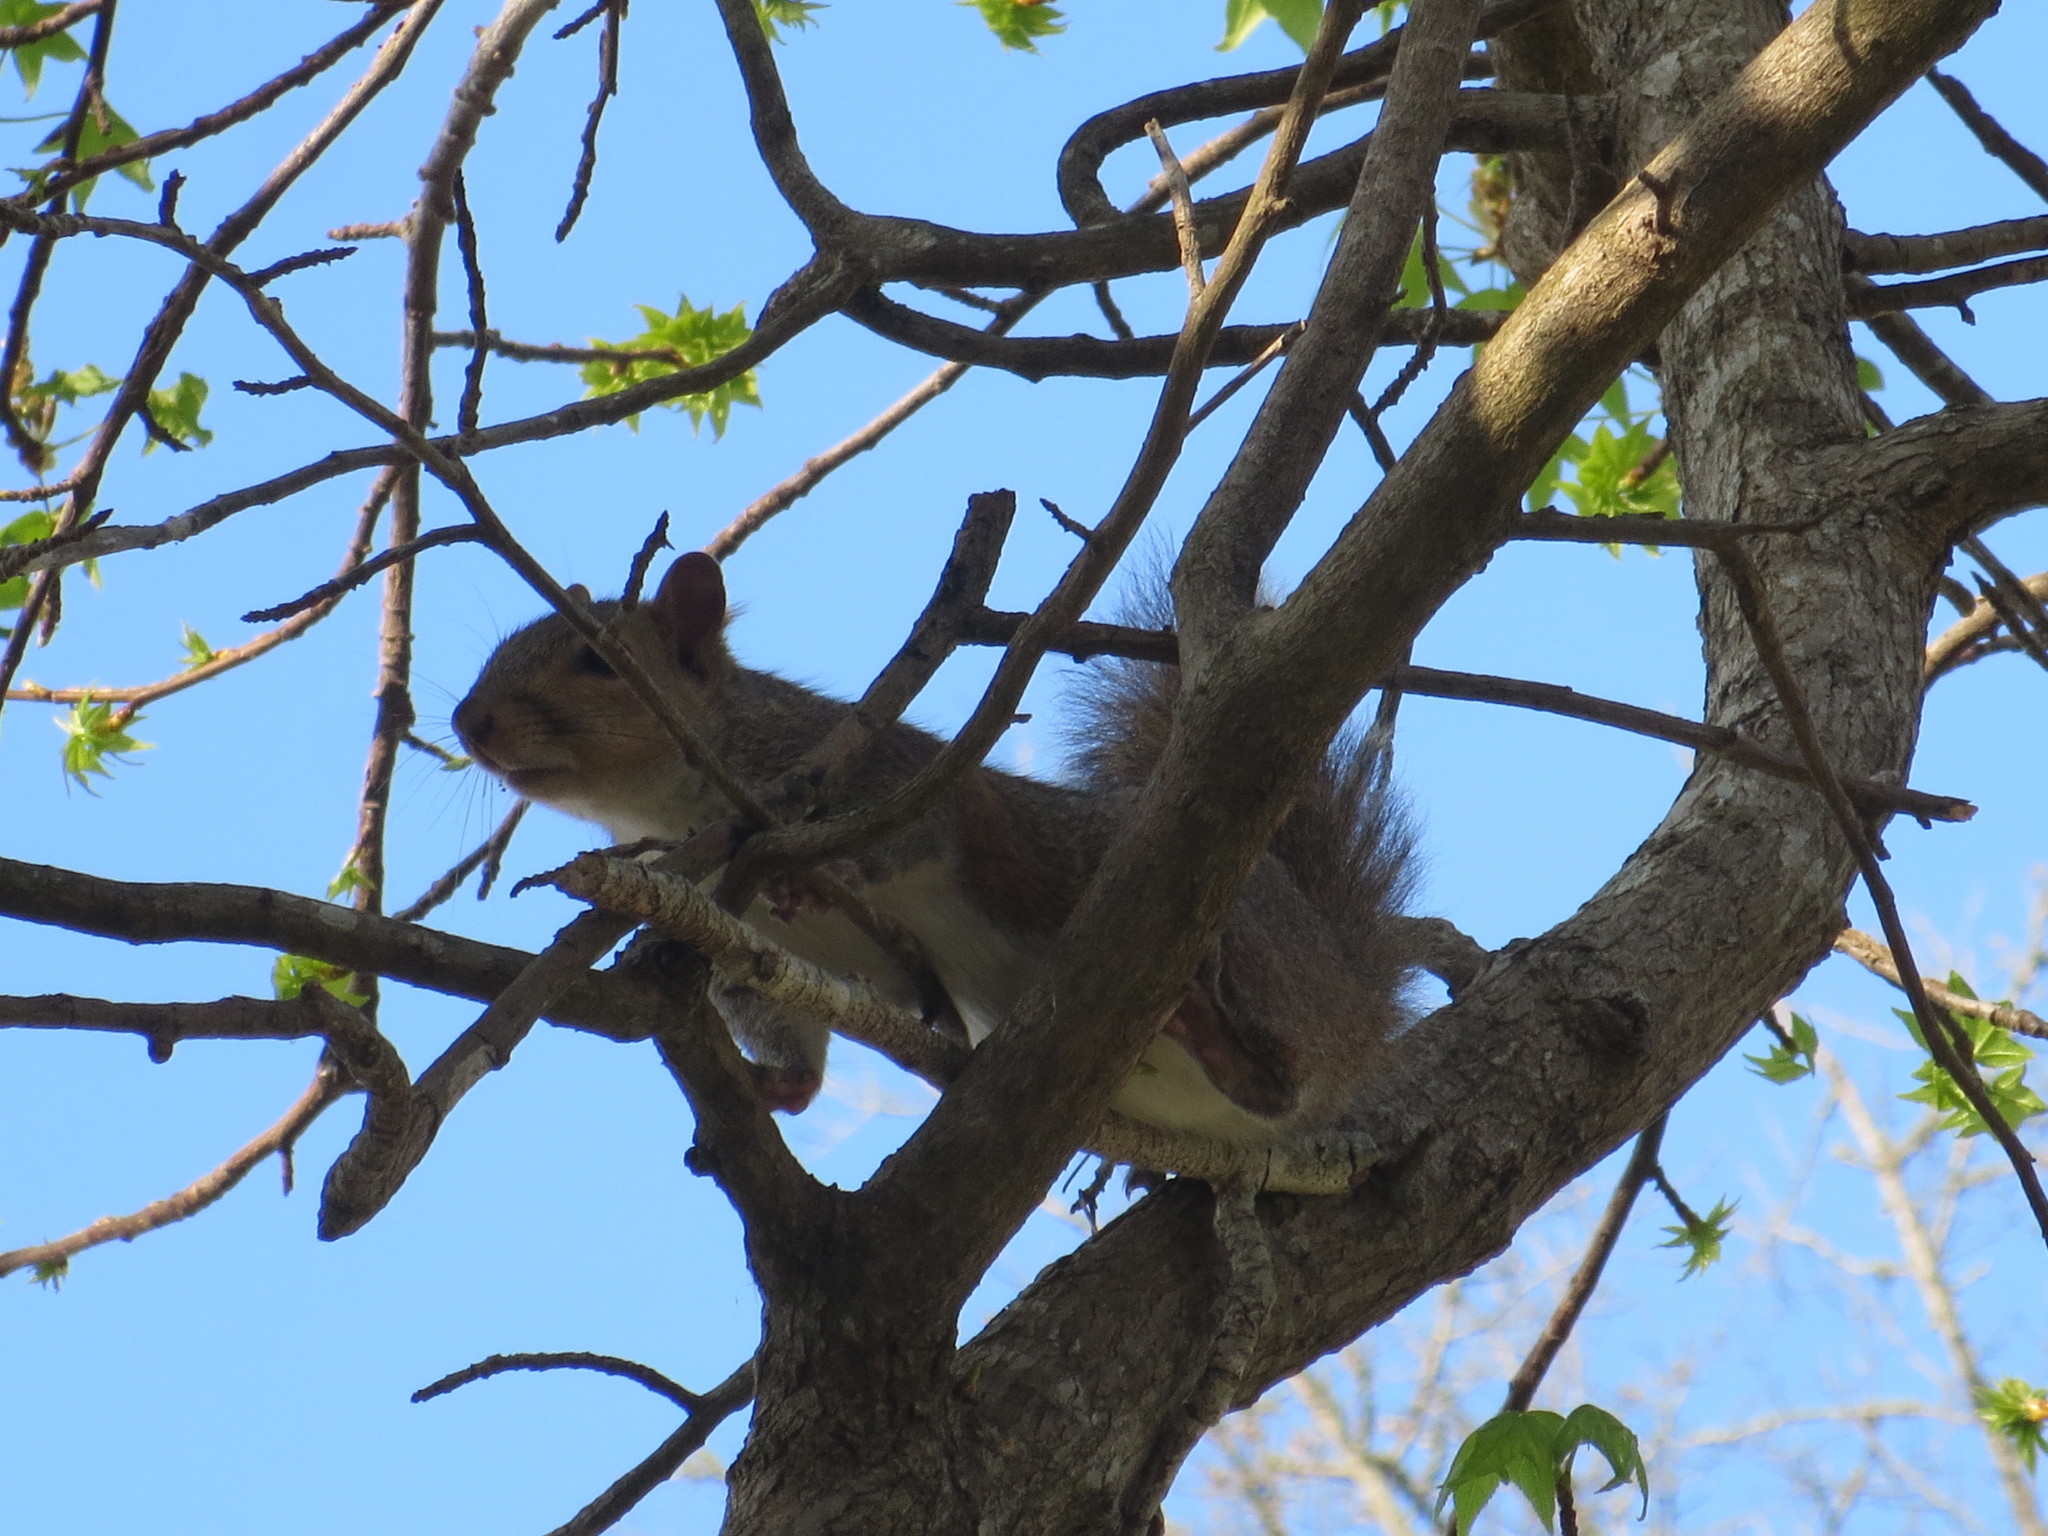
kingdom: Animalia
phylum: Chordata
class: Mammalia
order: Rodentia
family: Sciuridae
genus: Sciurus
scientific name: Sciurus carolinensis
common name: Eastern gray squirrel
